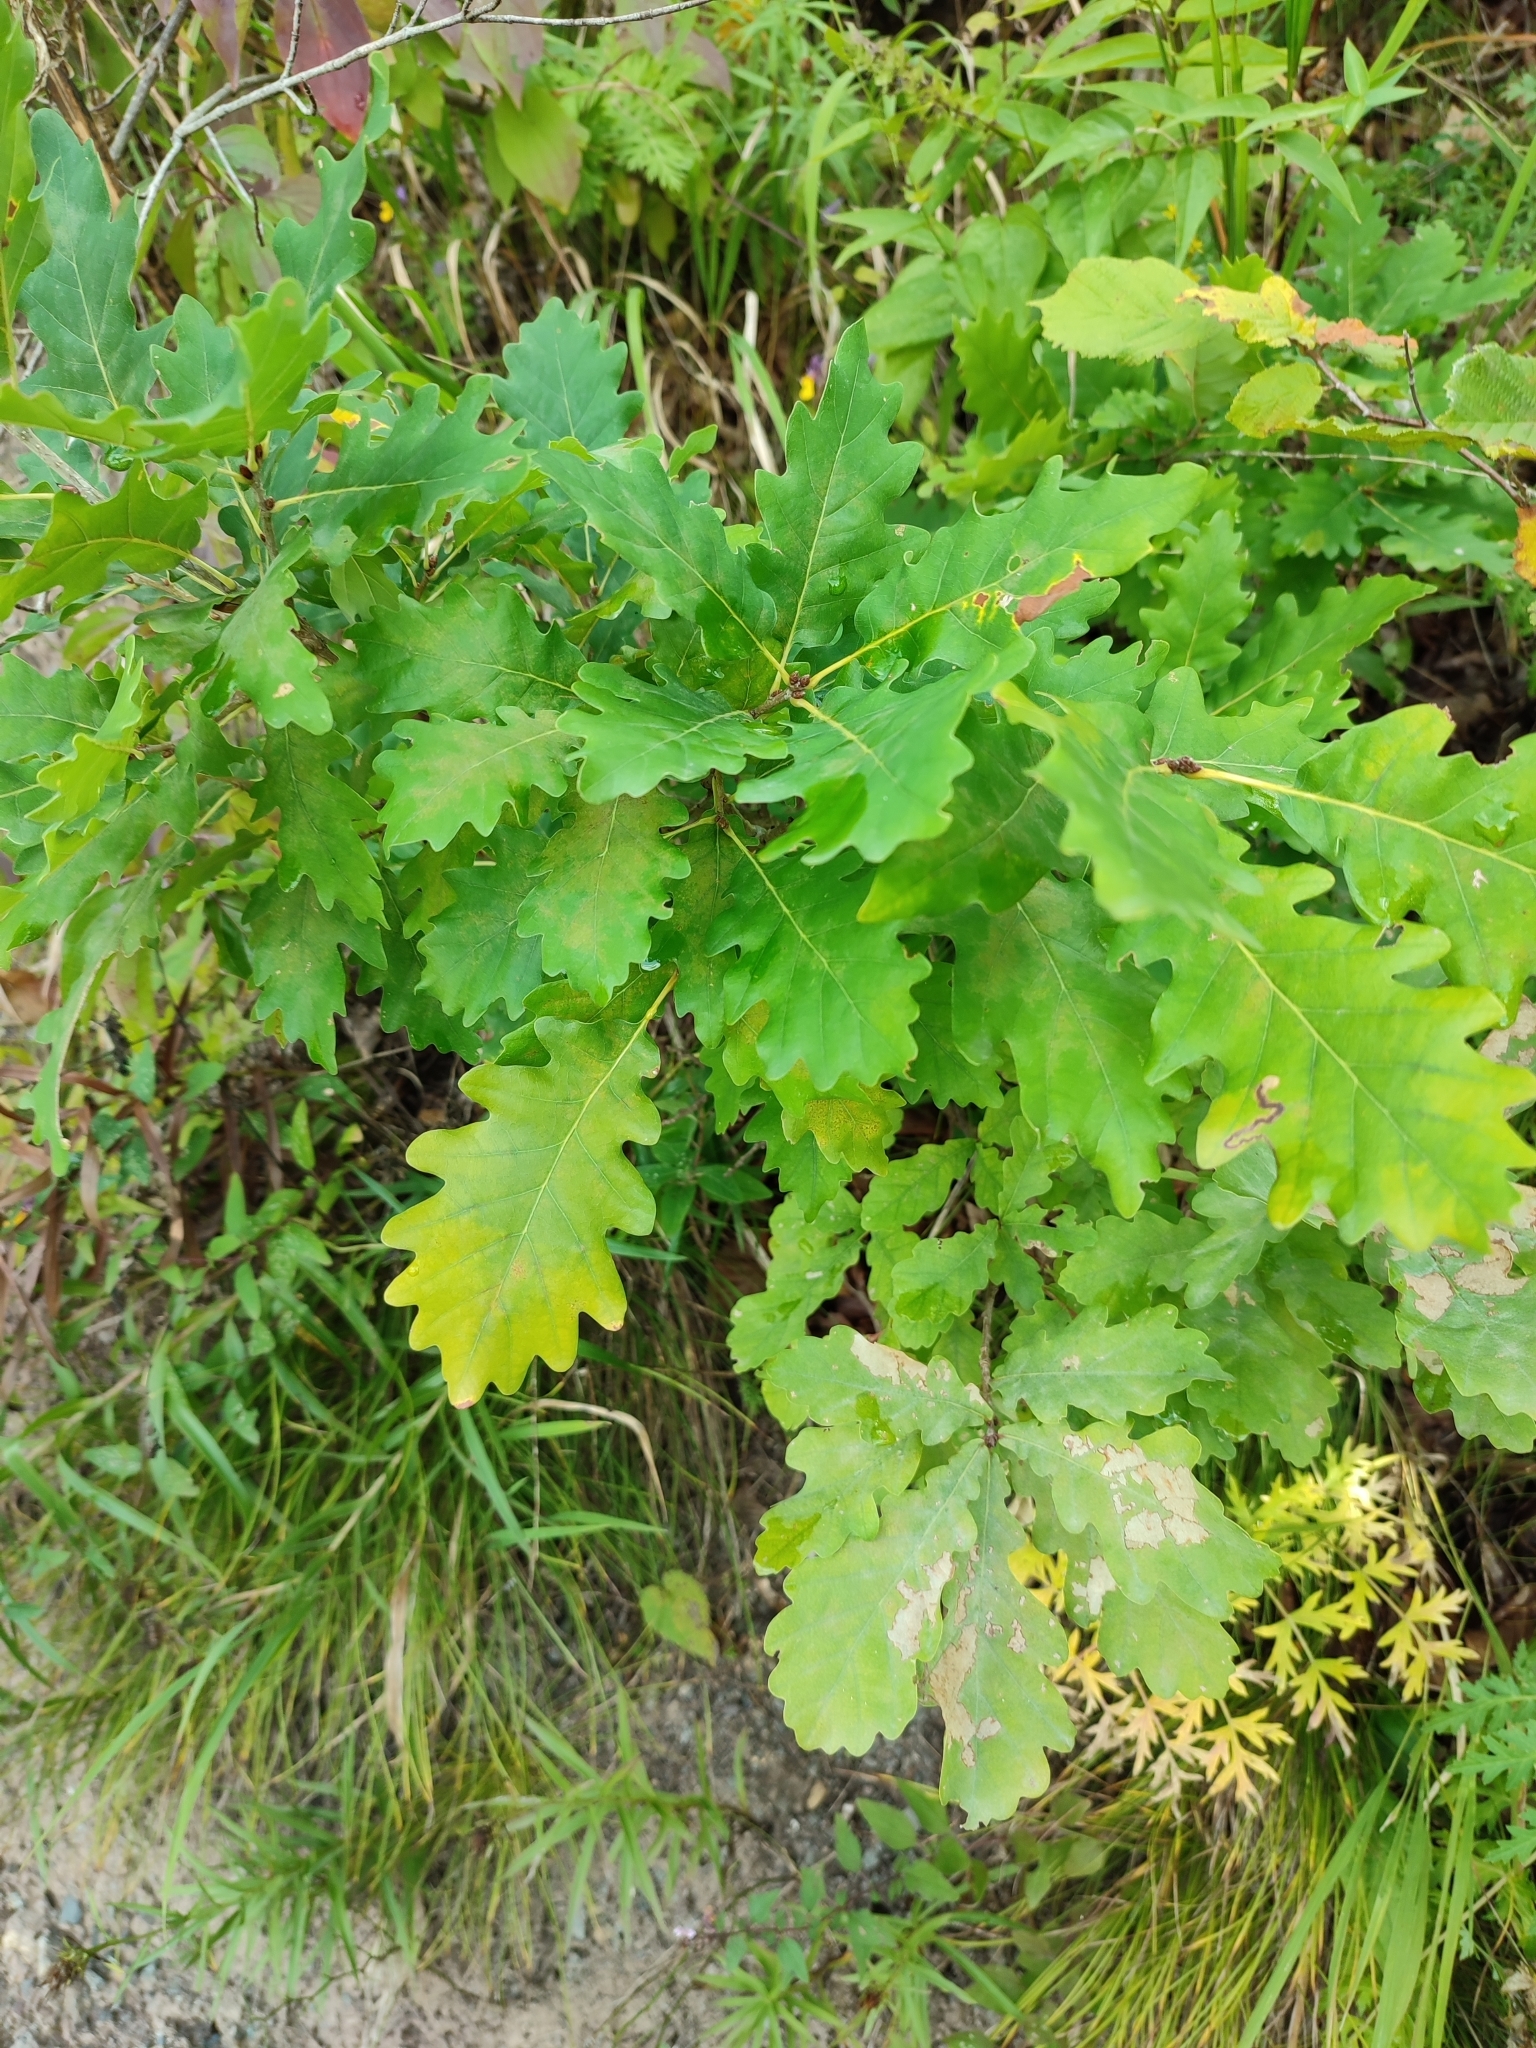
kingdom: Plantae
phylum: Tracheophyta
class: Magnoliopsida
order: Fagales
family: Fagaceae
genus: Quercus
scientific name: Quercus petraea
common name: Sessile oak
